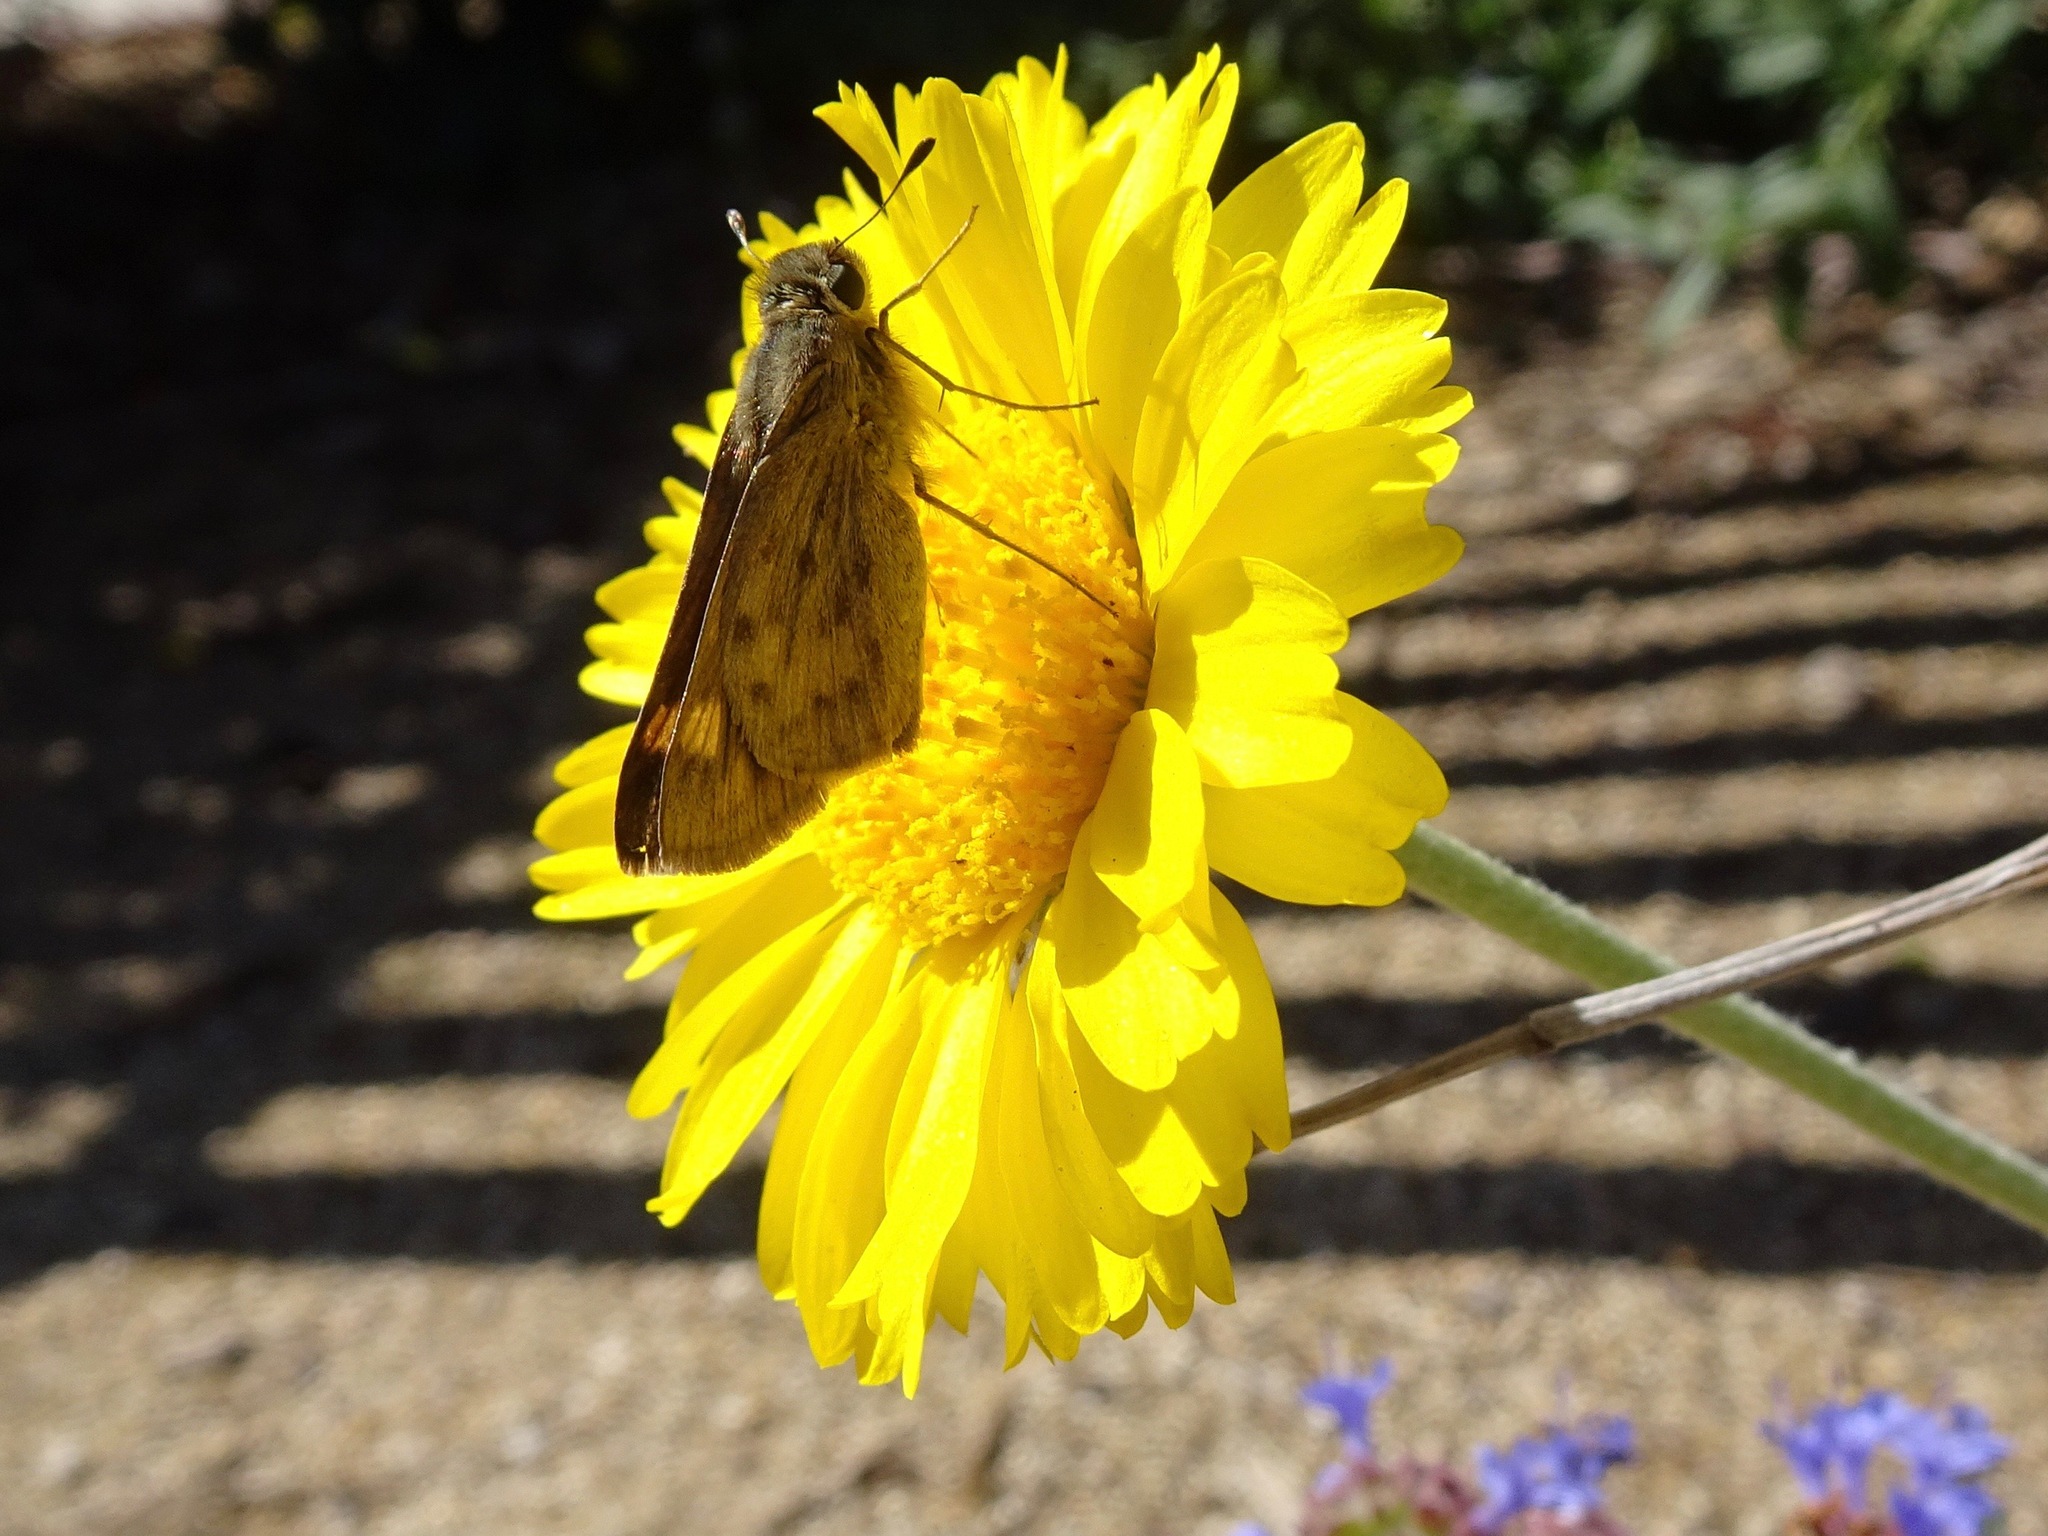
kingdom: Animalia
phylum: Arthropoda
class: Insecta
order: Lepidoptera
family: Hesperiidae
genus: Hylephila
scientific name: Hylephila phyleus
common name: Fiery skipper
